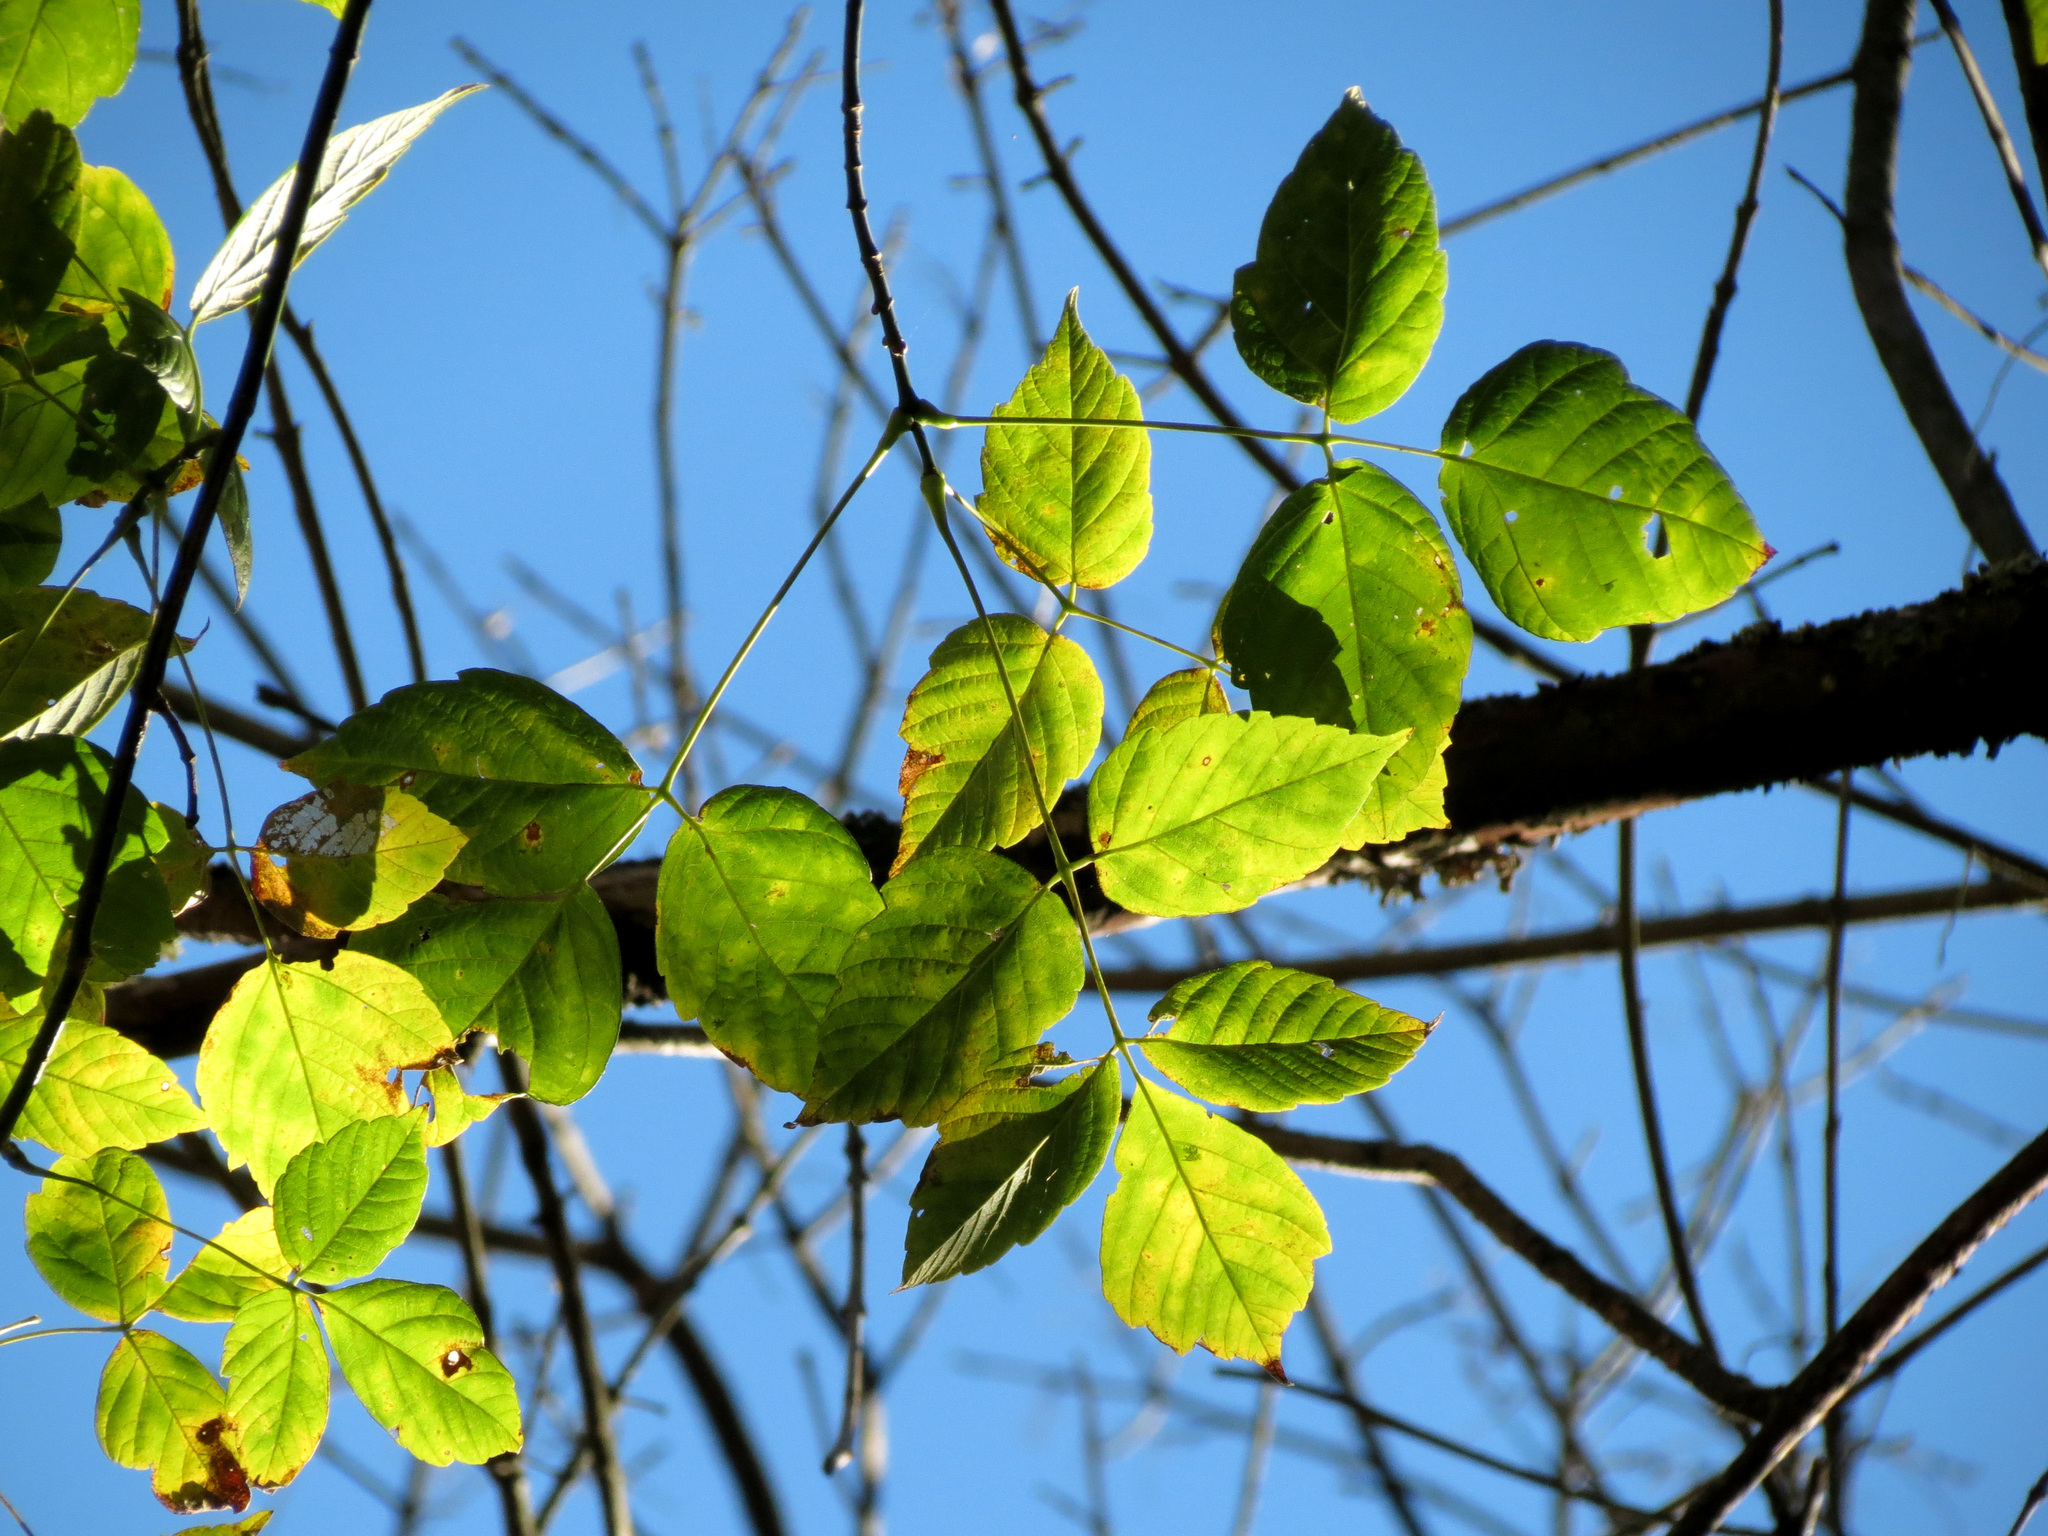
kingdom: Plantae
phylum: Tracheophyta
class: Magnoliopsida
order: Sapindales
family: Sapindaceae
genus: Acer
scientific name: Acer negundo
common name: Ashleaf maple
